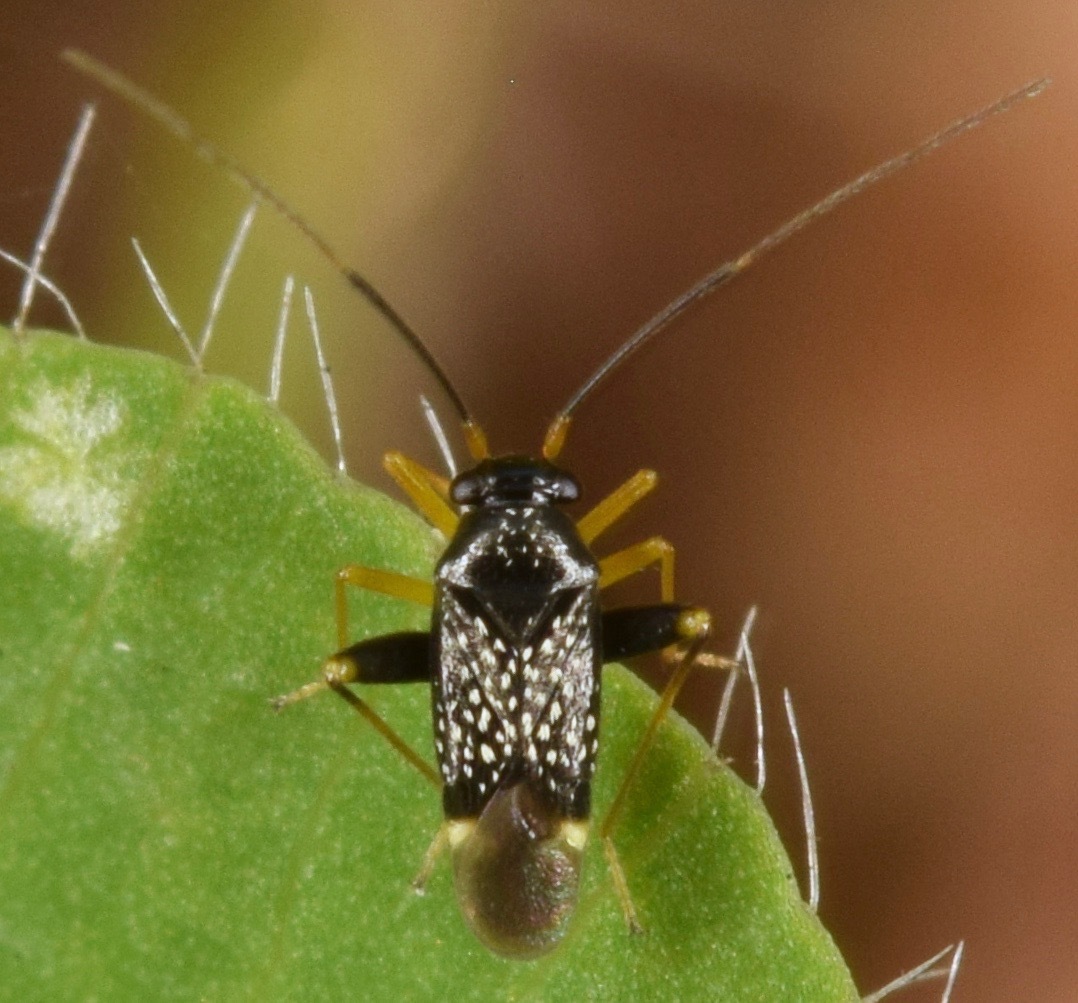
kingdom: Animalia
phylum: Arthropoda
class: Insecta
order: Hemiptera
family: Miridae
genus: Microtechnites
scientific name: Microtechnites bractatus
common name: Garden fleahopper
